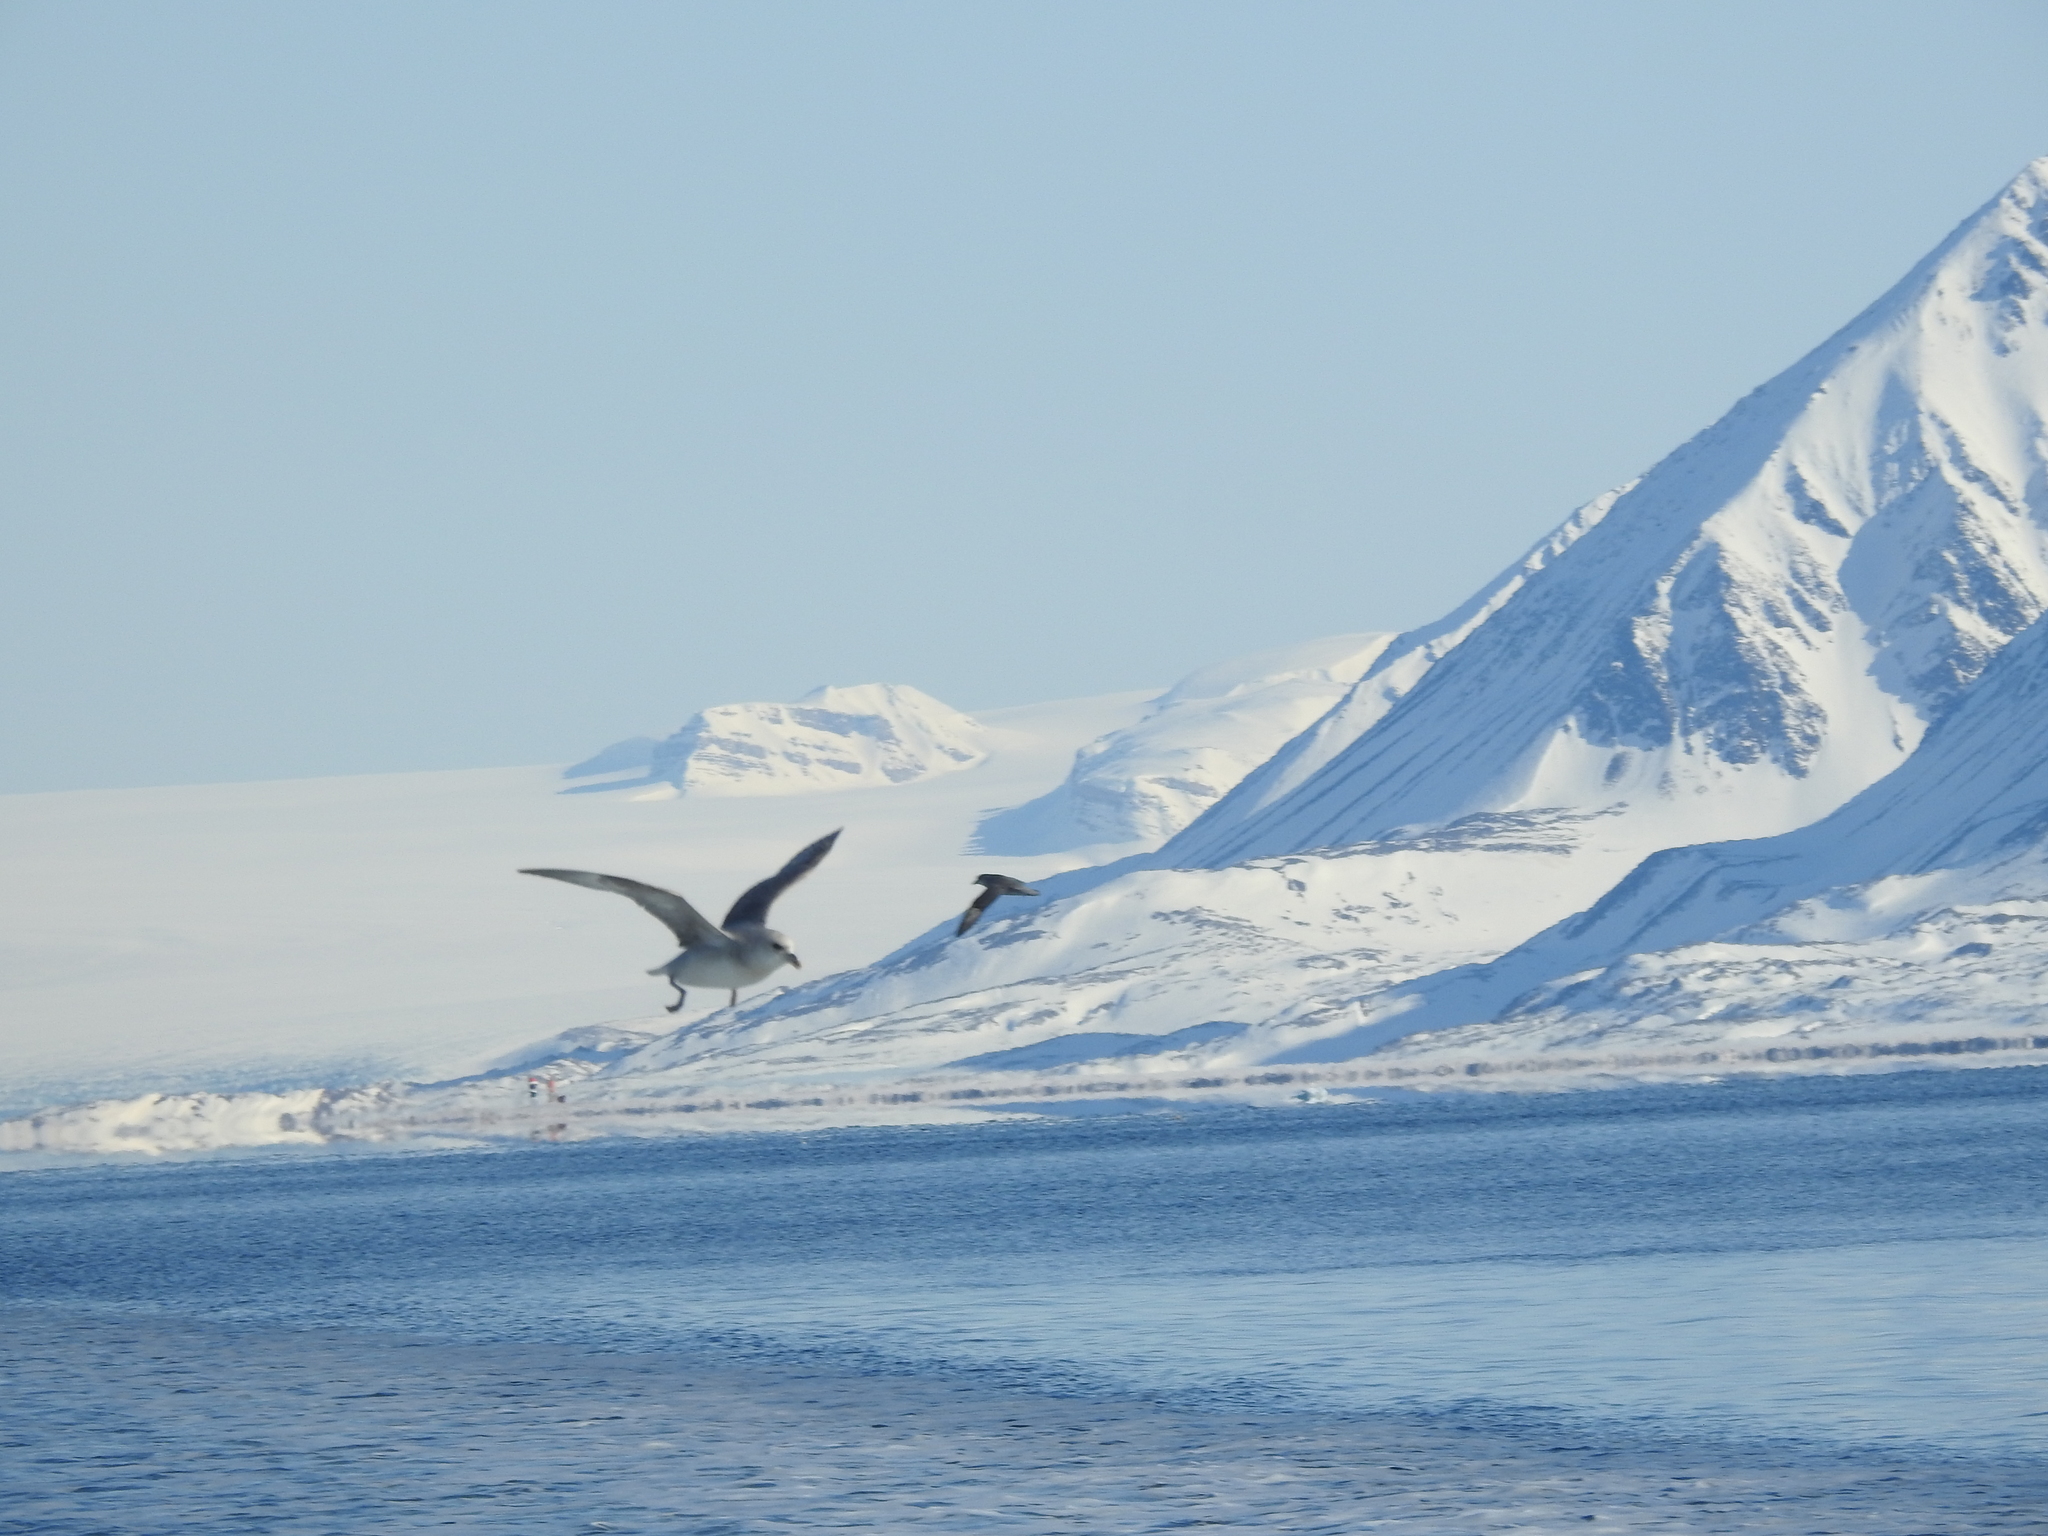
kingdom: Animalia
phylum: Chordata
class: Aves
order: Procellariiformes
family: Procellariidae
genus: Fulmarus
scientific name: Fulmarus glacialis
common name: Northern fulmar
